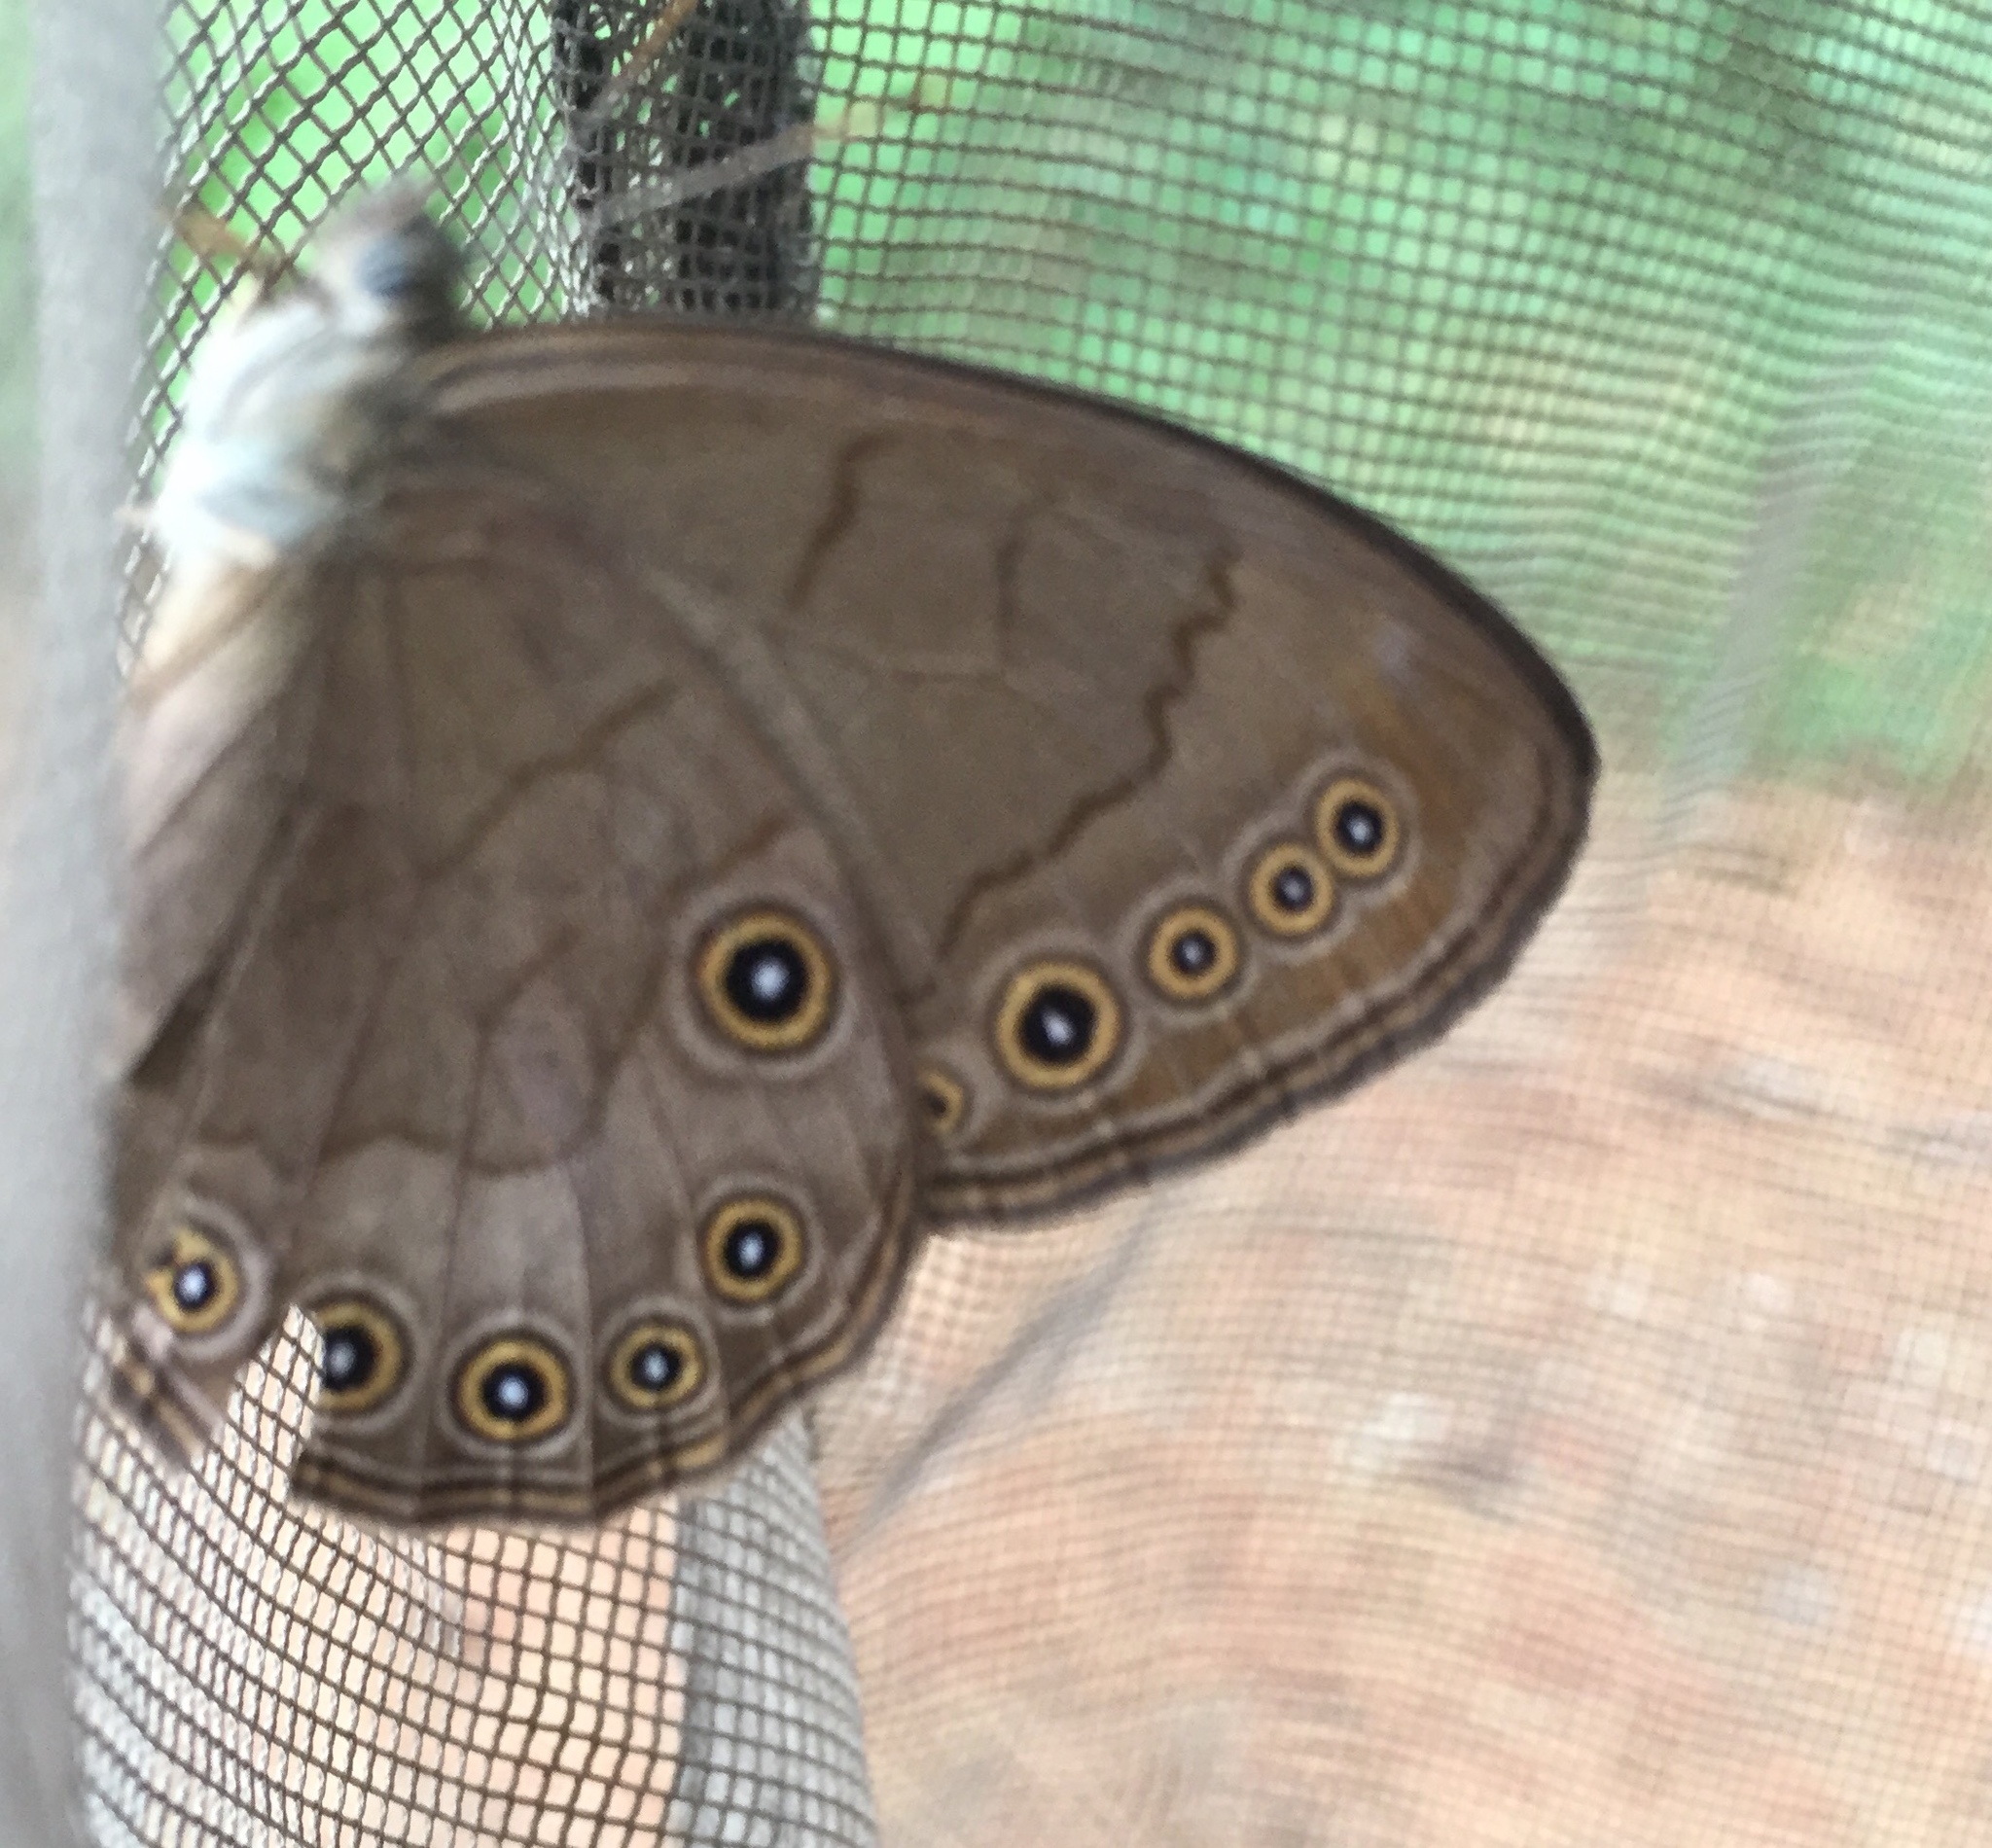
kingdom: Animalia
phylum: Arthropoda
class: Insecta
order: Lepidoptera
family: Nymphalidae
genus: Lethe
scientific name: Lethe eurydice
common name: Eyed brown
